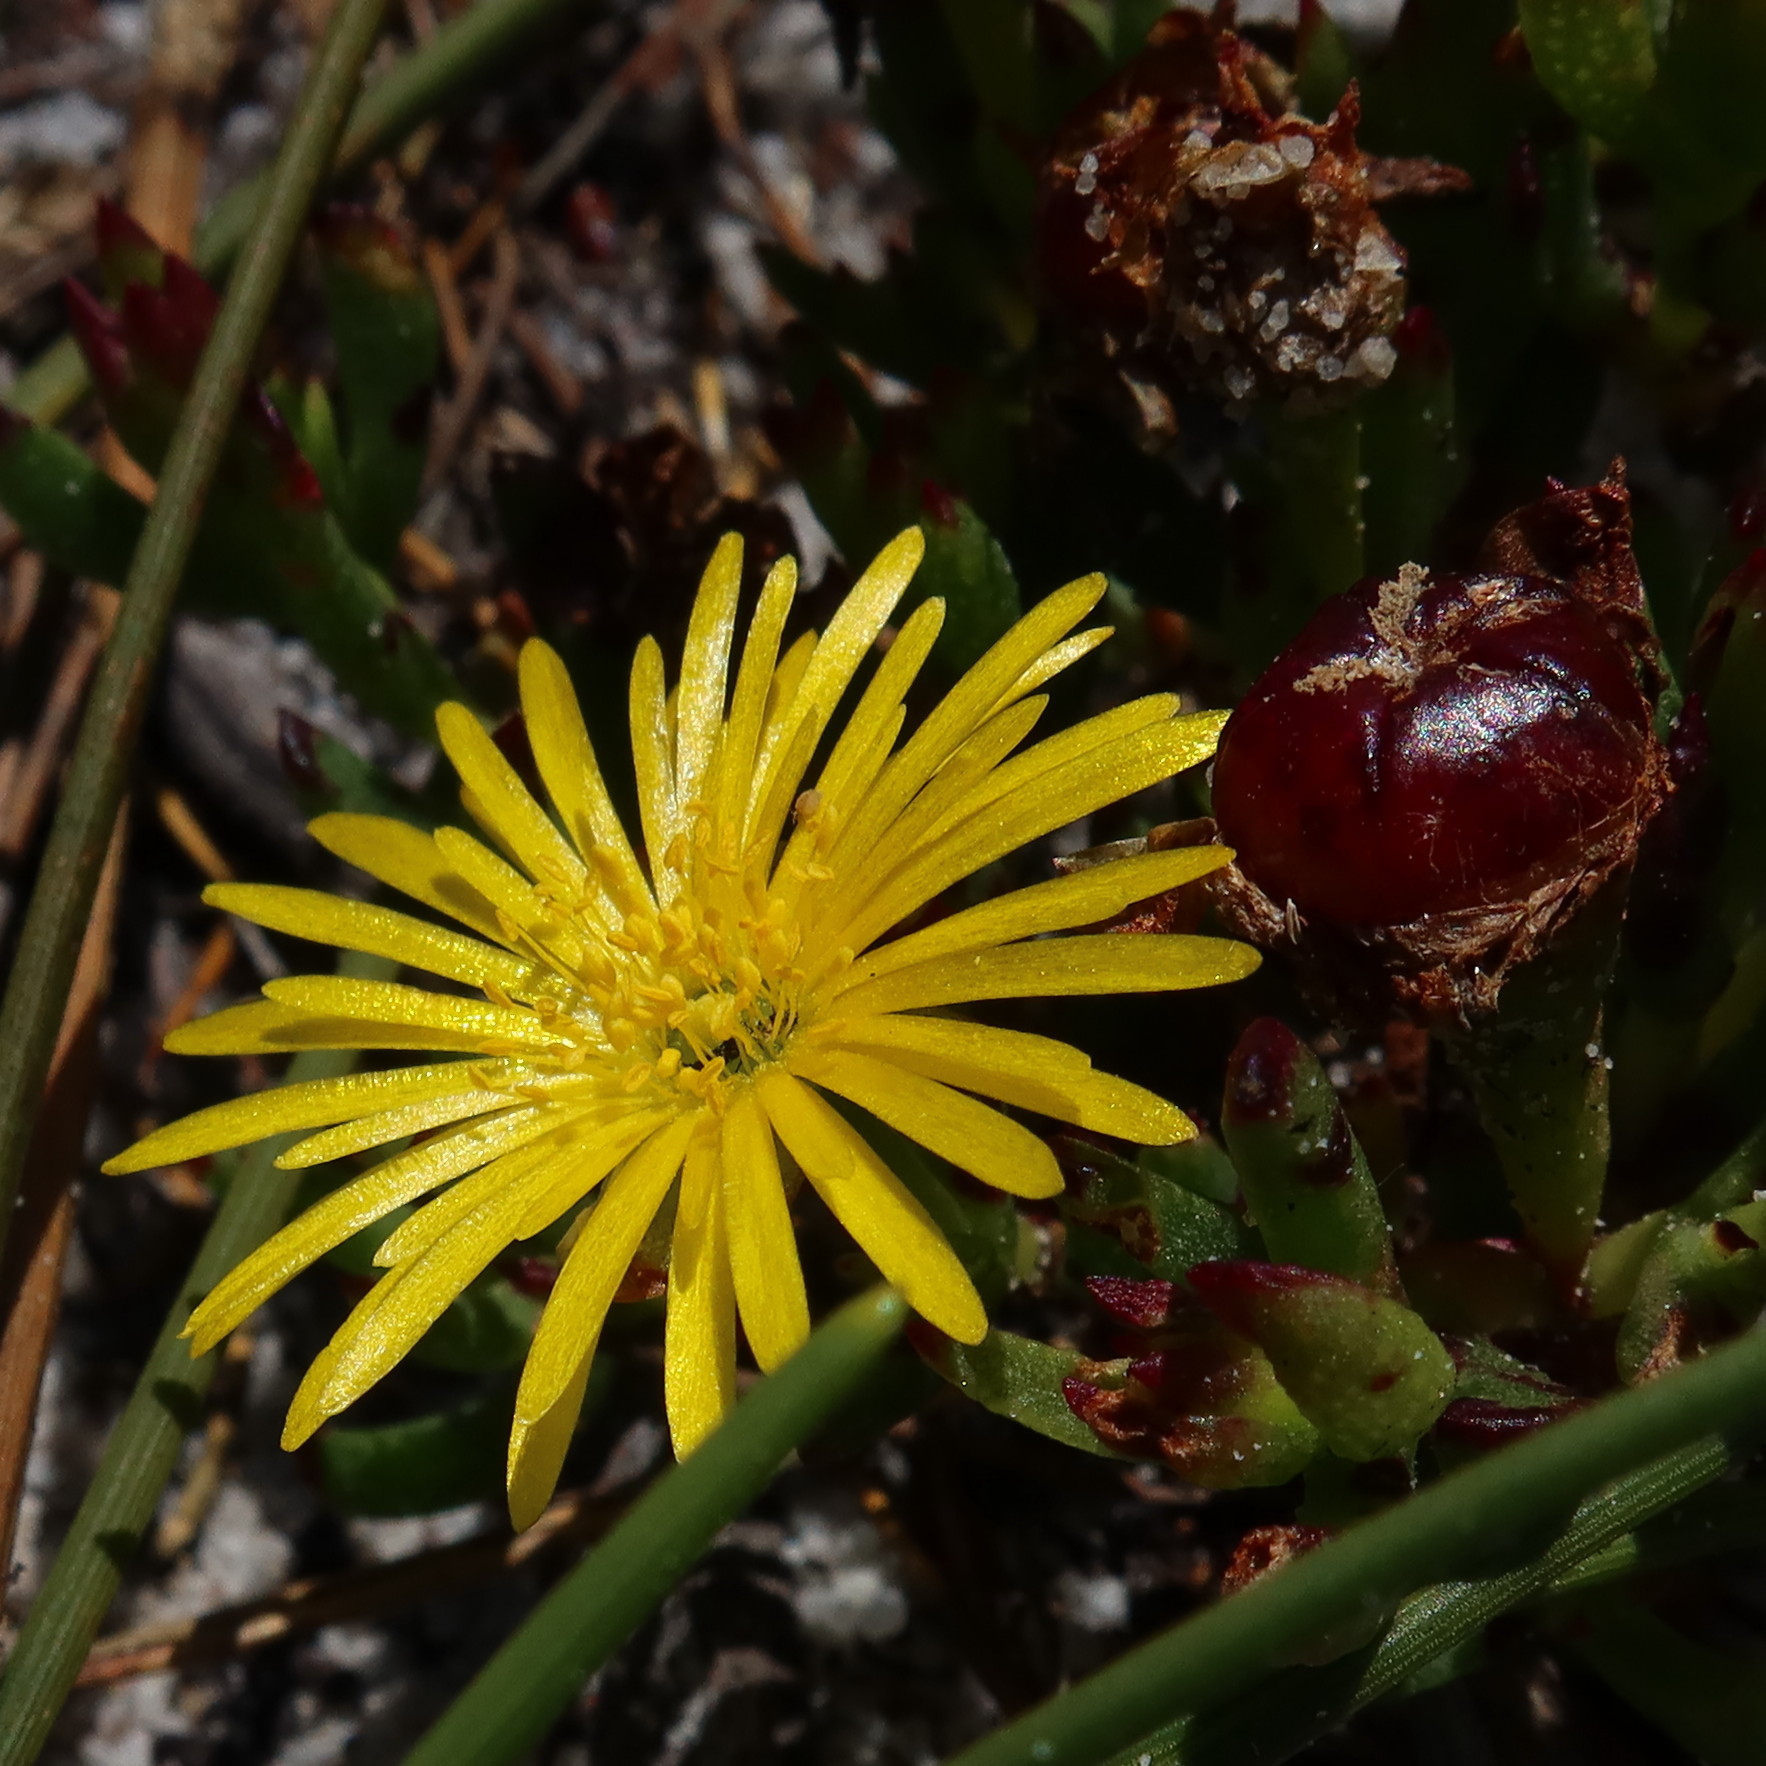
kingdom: Plantae
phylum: Tracheophyta
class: Magnoliopsida
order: Caryophyllales
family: Aizoaceae
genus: Lampranthus
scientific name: Lampranthus promontorii
